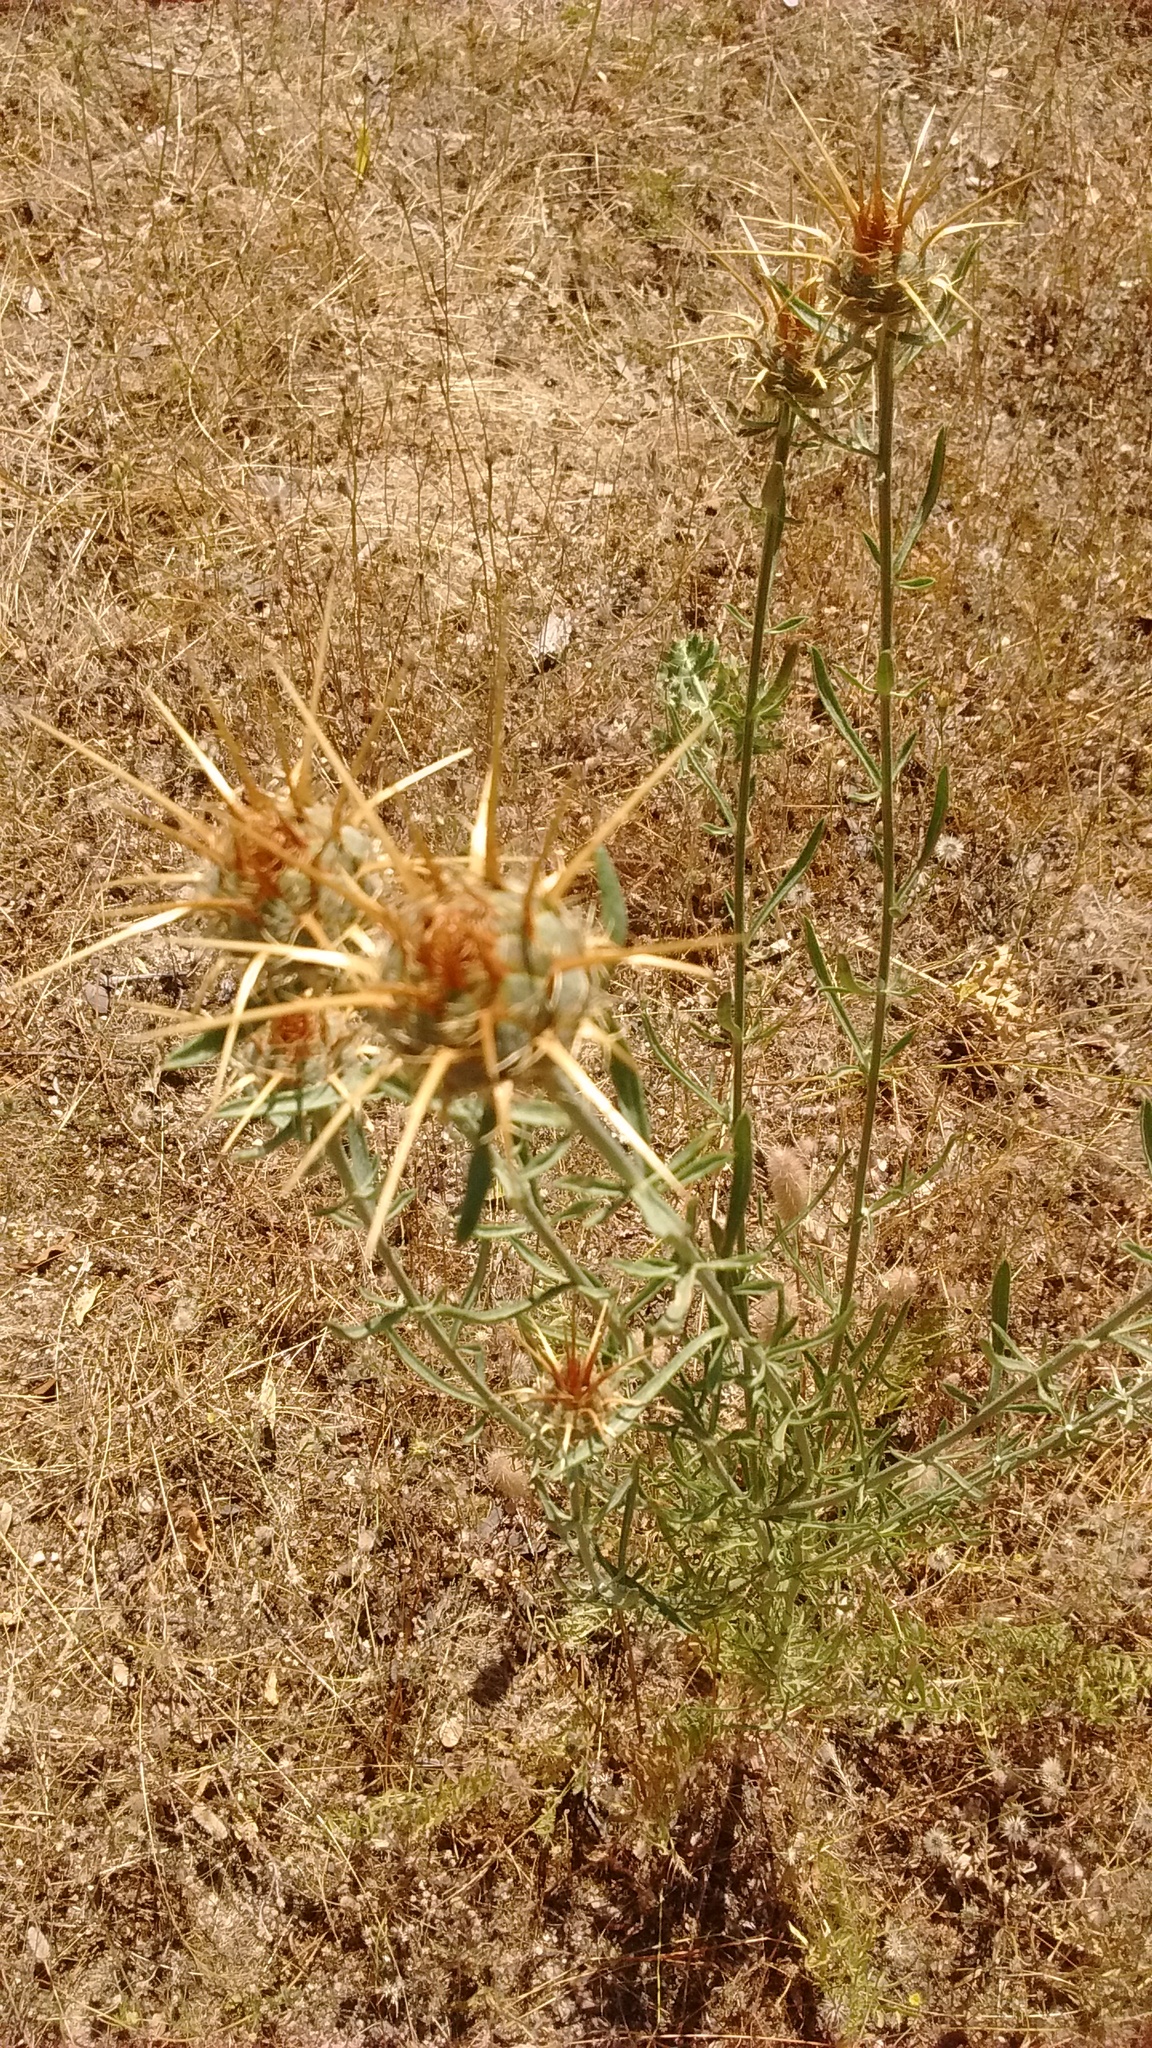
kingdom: Plantae
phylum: Tracheophyta
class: Magnoliopsida
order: Asterales
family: Asteraceae
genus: Centaurea
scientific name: Centaurea ornata
